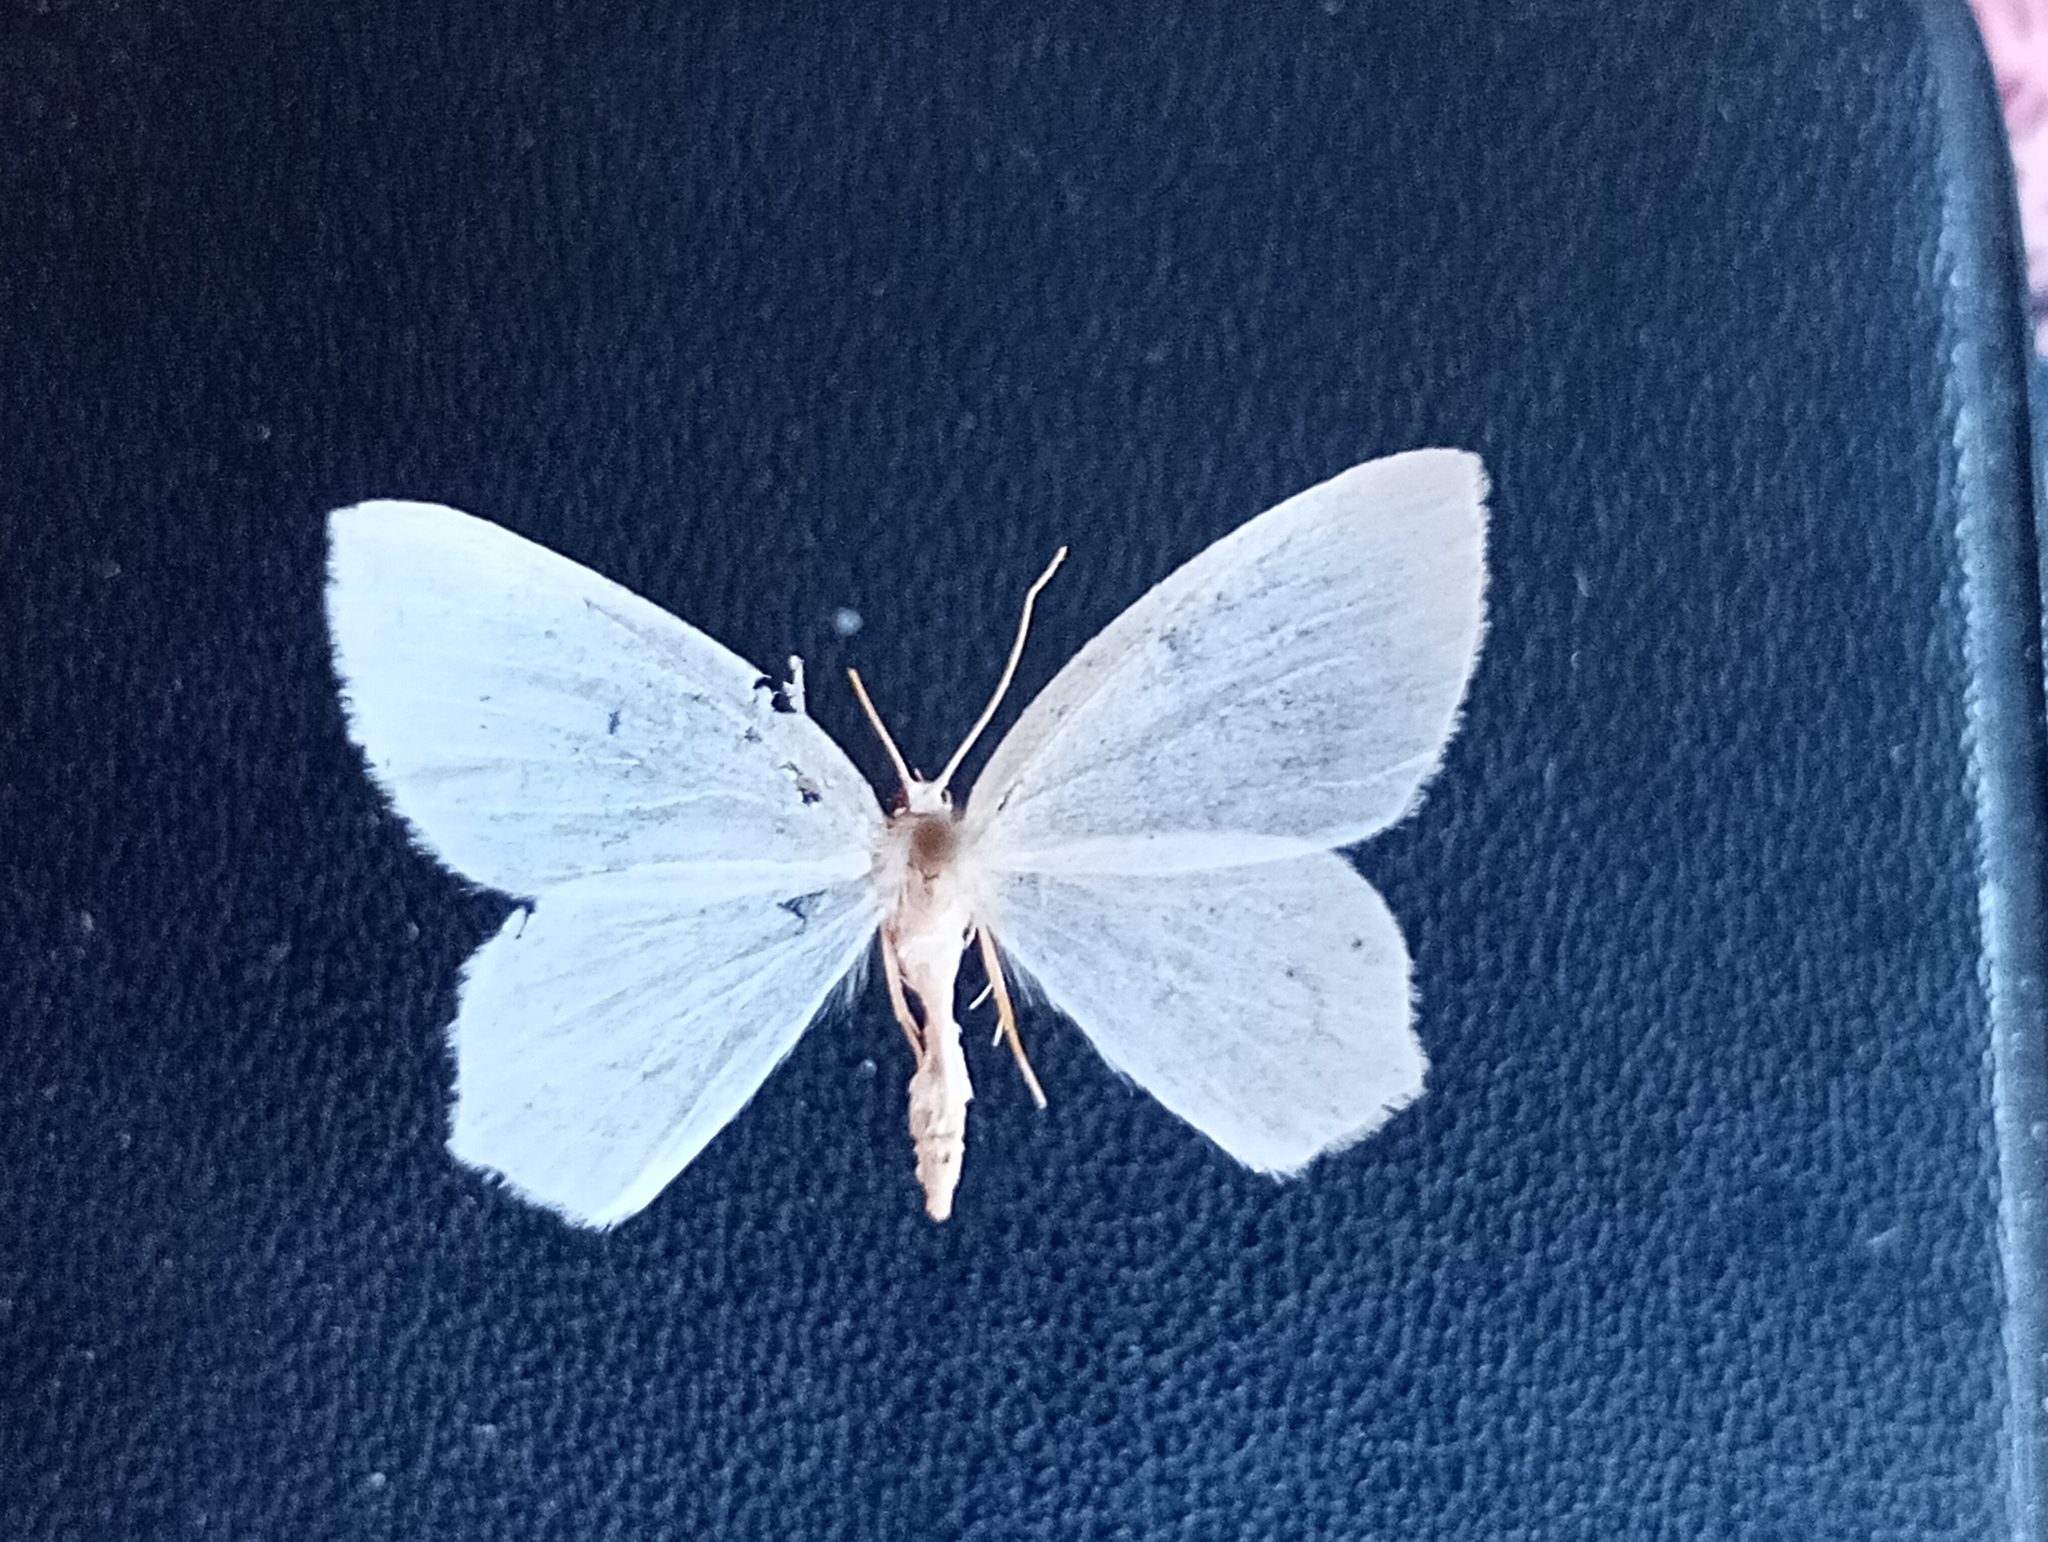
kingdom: Animalia
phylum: Arthropoda
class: Insecta
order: Lepidoptera
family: Geometridae
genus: Jodis
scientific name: Jodis lactearia
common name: Little emerald
